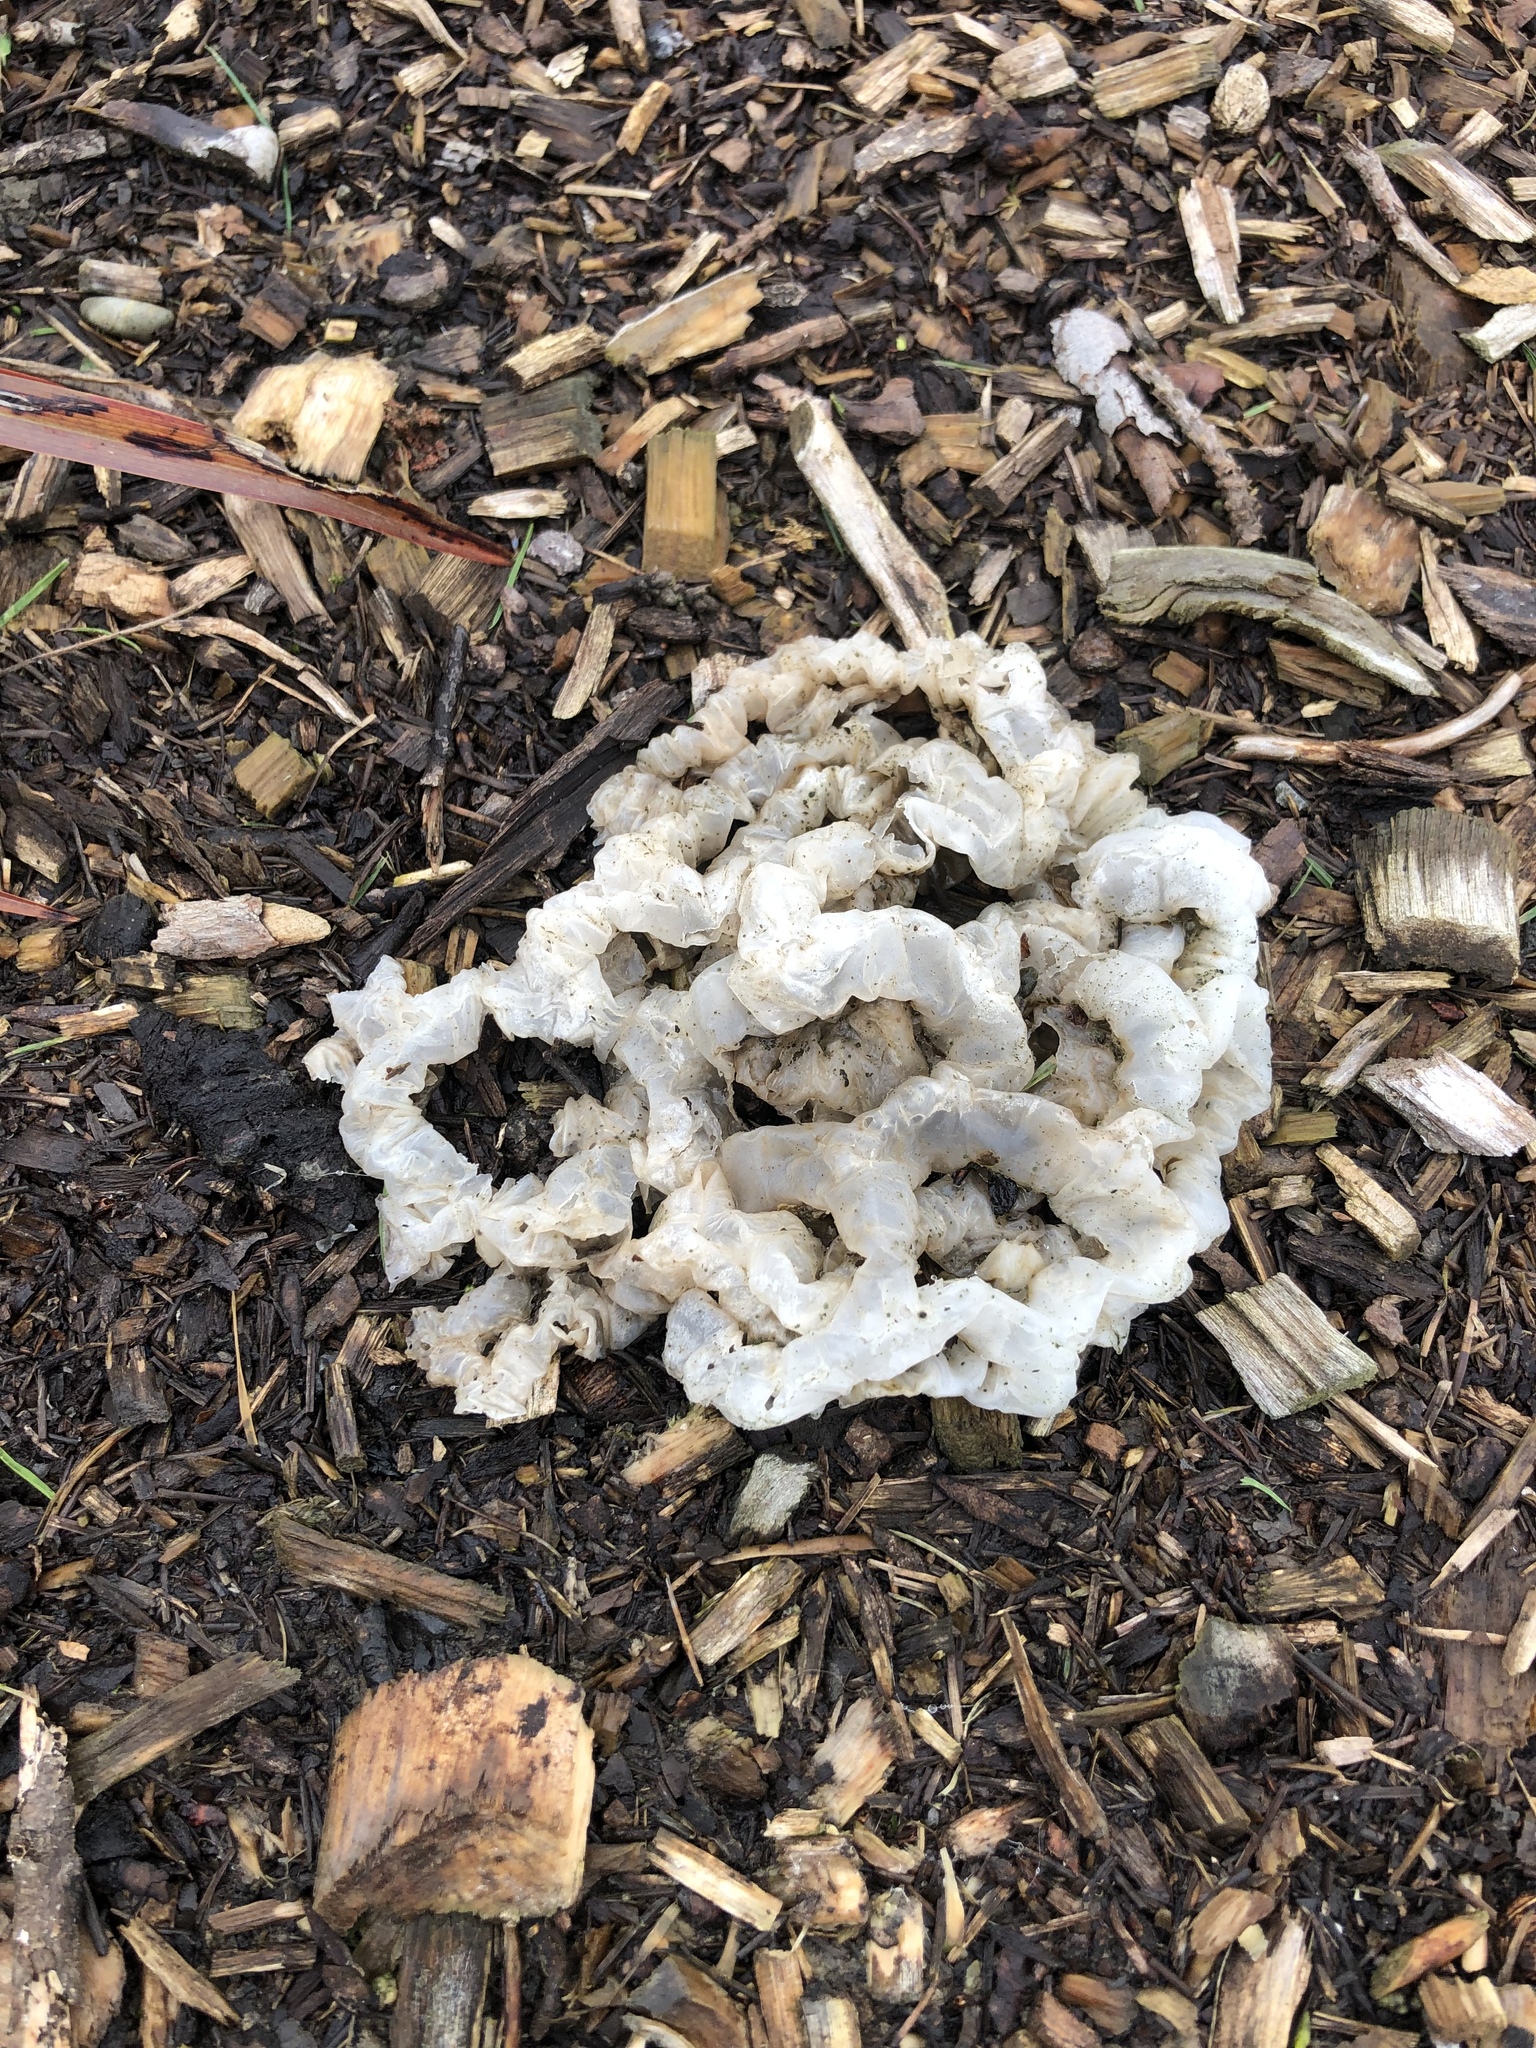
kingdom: Fungi
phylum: Basidiomycota
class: Agaricomycetes
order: Phallales
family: Phallaceae
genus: Ileodictyon
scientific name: Ileodictyon cibarium
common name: Basket fungus
